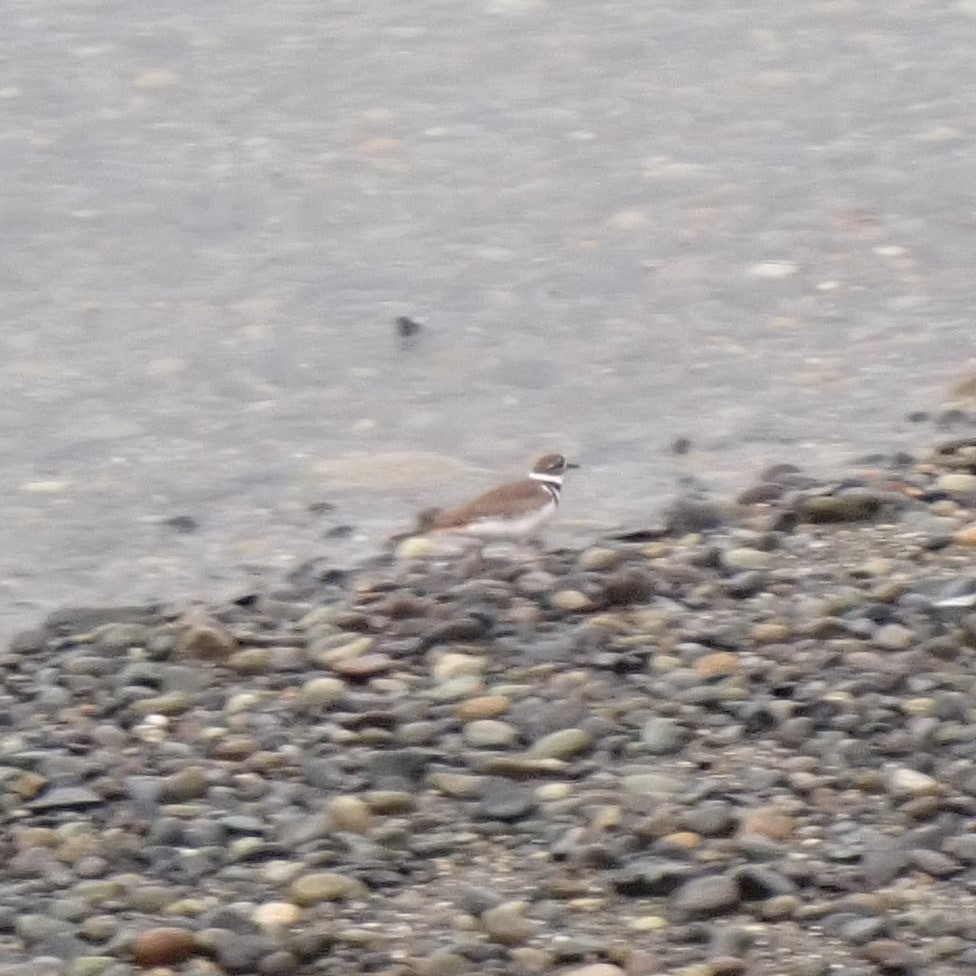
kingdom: Animalia
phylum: Chordata
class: Aves
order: Charadriiformes
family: Charadriidae
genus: Charadrius
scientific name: Charadrius vociferus
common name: Killdeer
